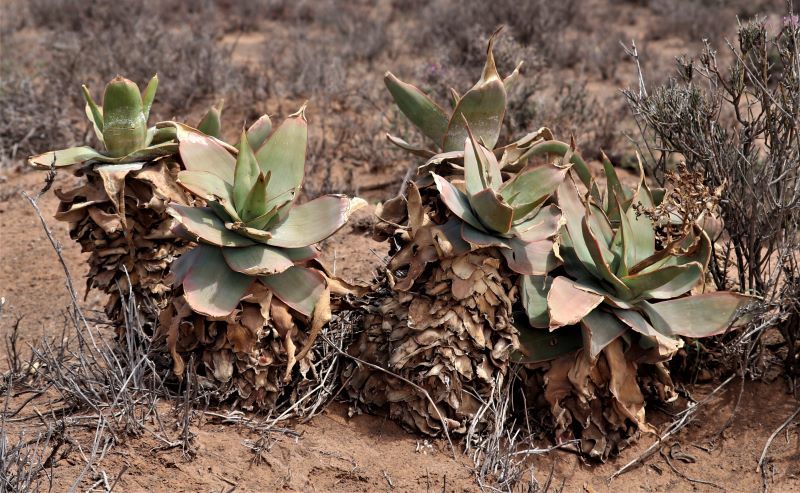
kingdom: Plantae
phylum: Tracheophyta
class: Liliopsida
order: Asparagales
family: Asphodelaceae
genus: Aloe
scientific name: Aloe striata
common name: Coral aloe
